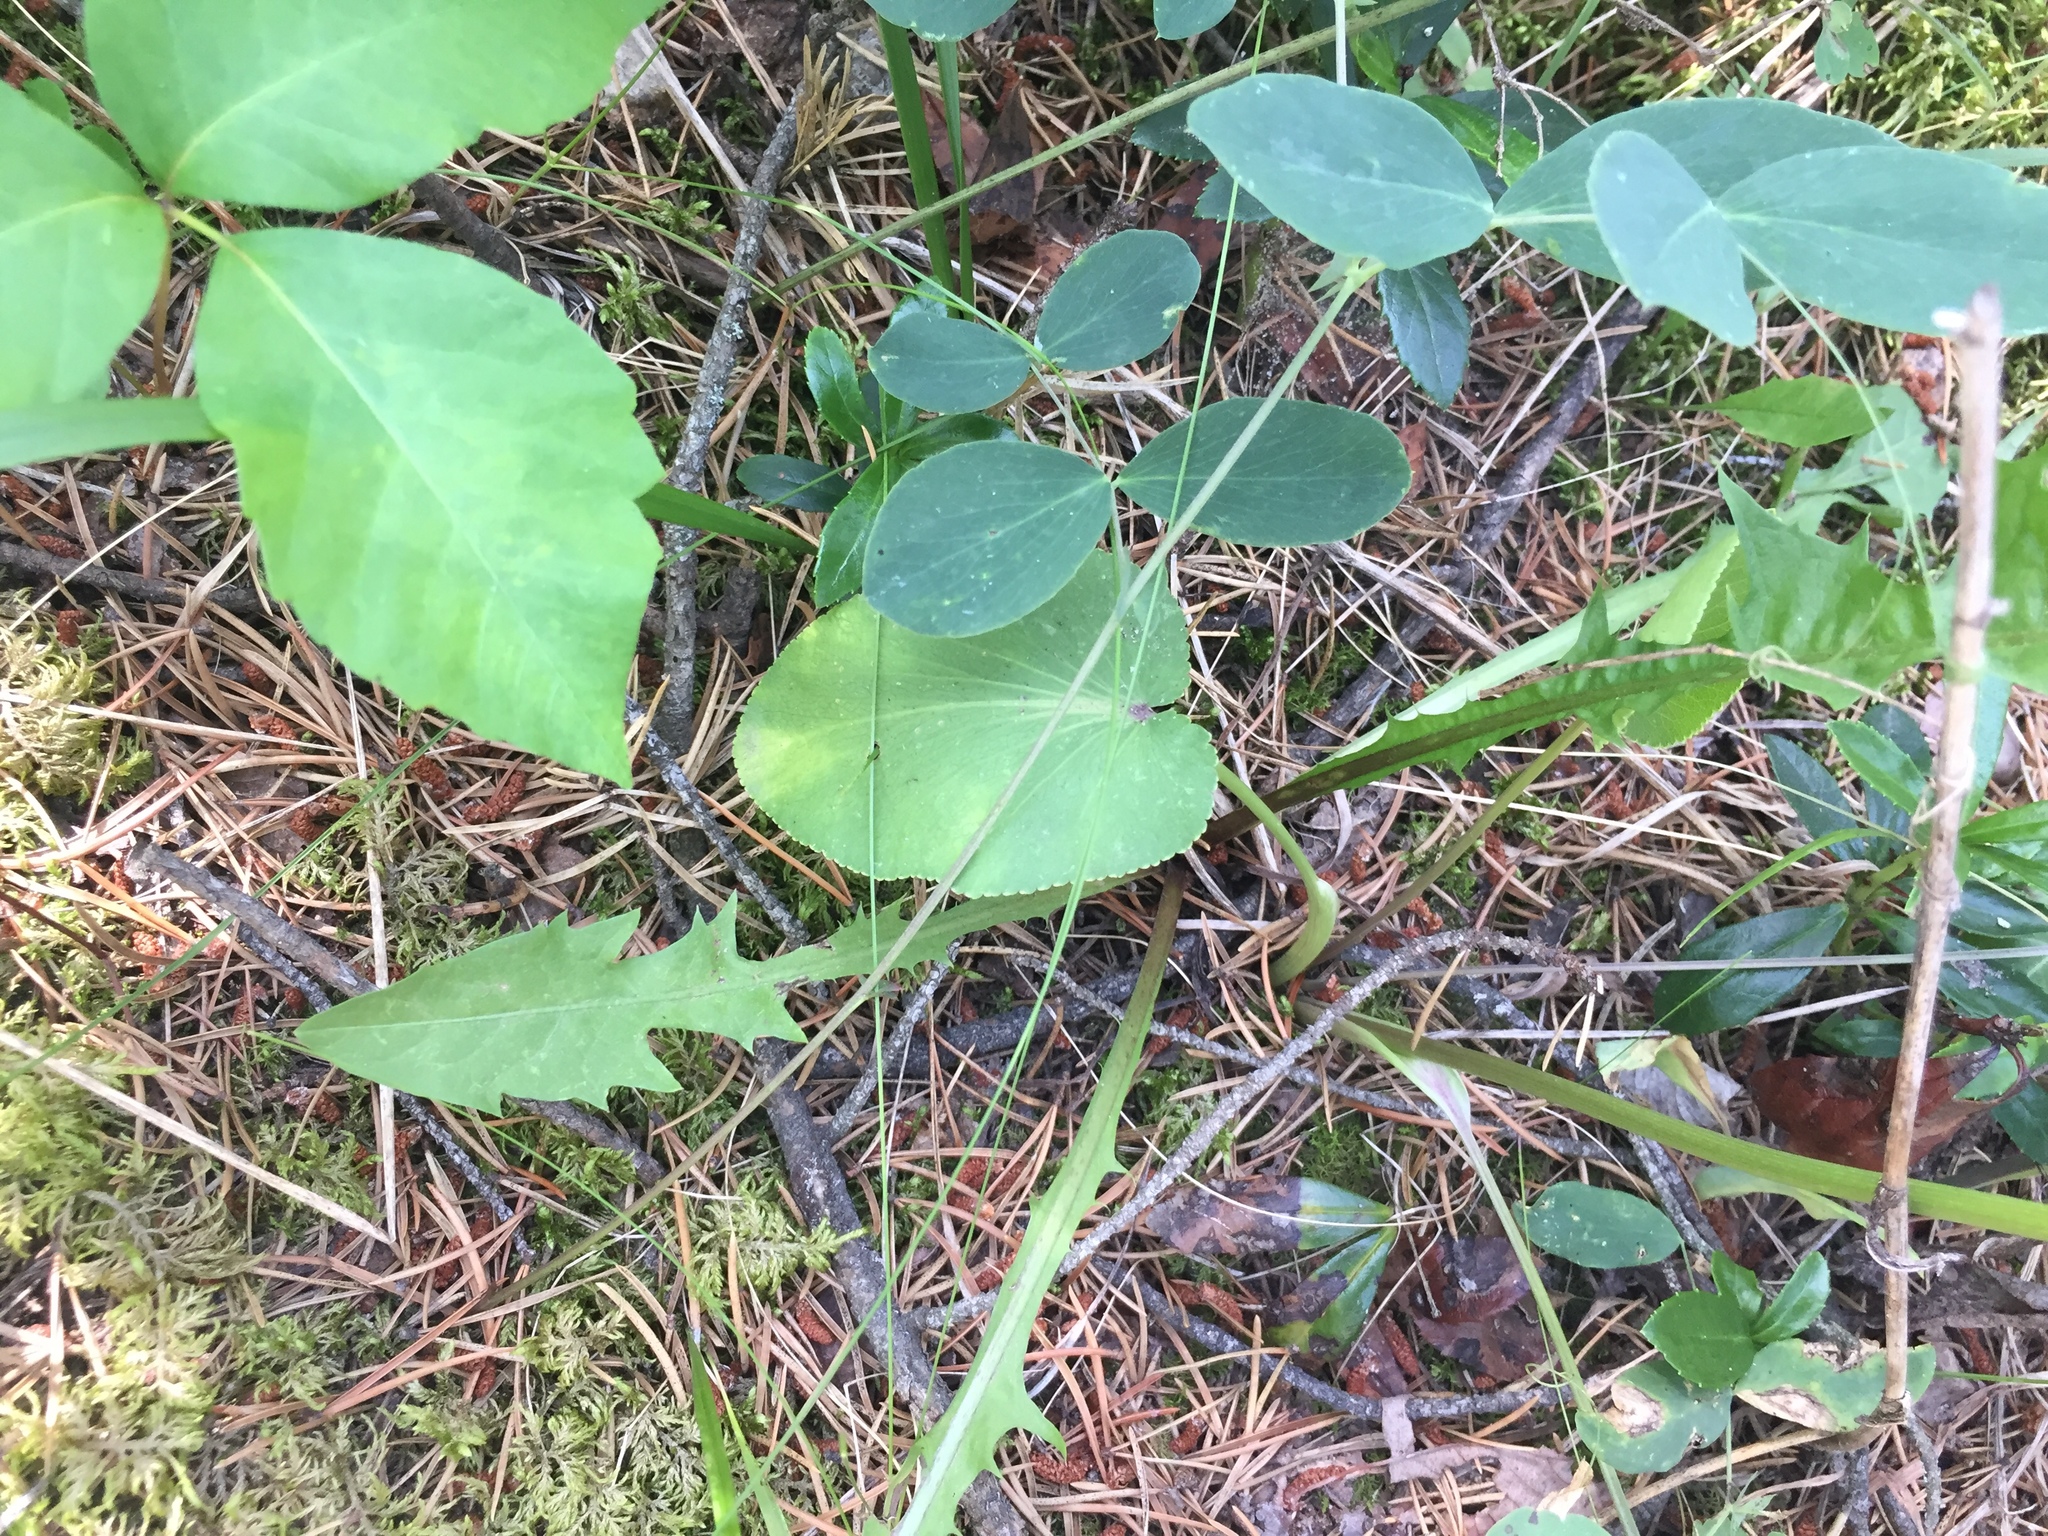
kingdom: Plantae
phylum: Tracheophyta
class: Magnoliopsida
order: Apiales
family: Apiaceae
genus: Zizia
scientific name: Zizia aptera
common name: Heart-leaved alexanders
